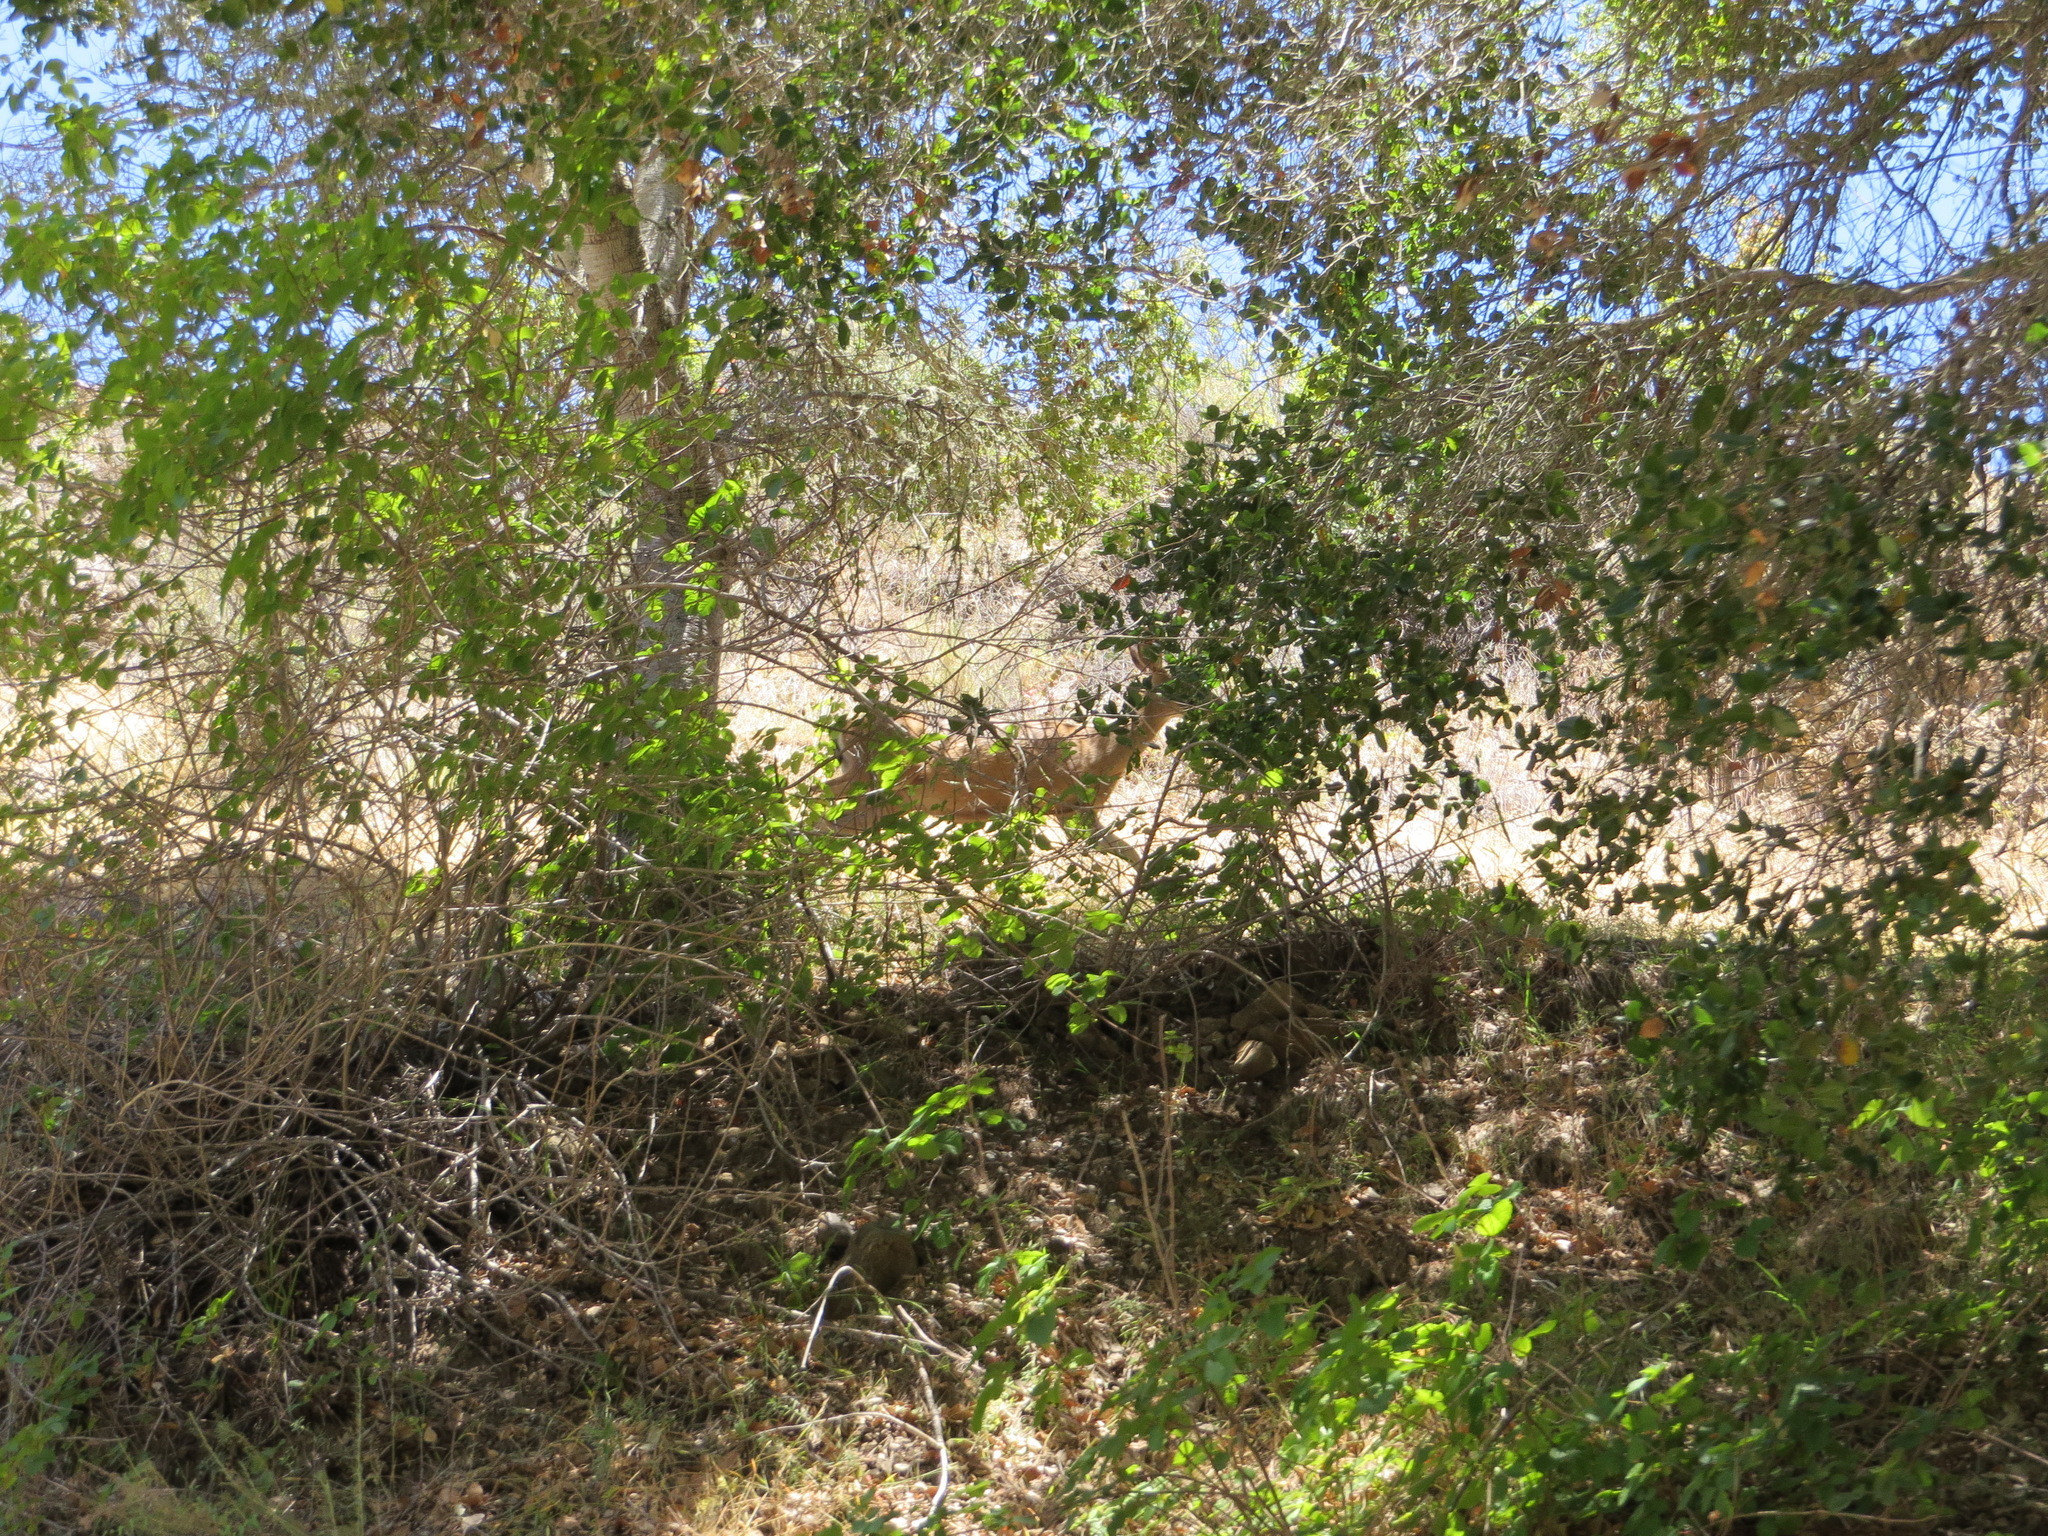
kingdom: Animalia
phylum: Chordata
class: Mammalia
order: Artiodactyla
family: Cervidae
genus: Odocoileus
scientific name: Odocoileus hemionus
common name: Mule deer
